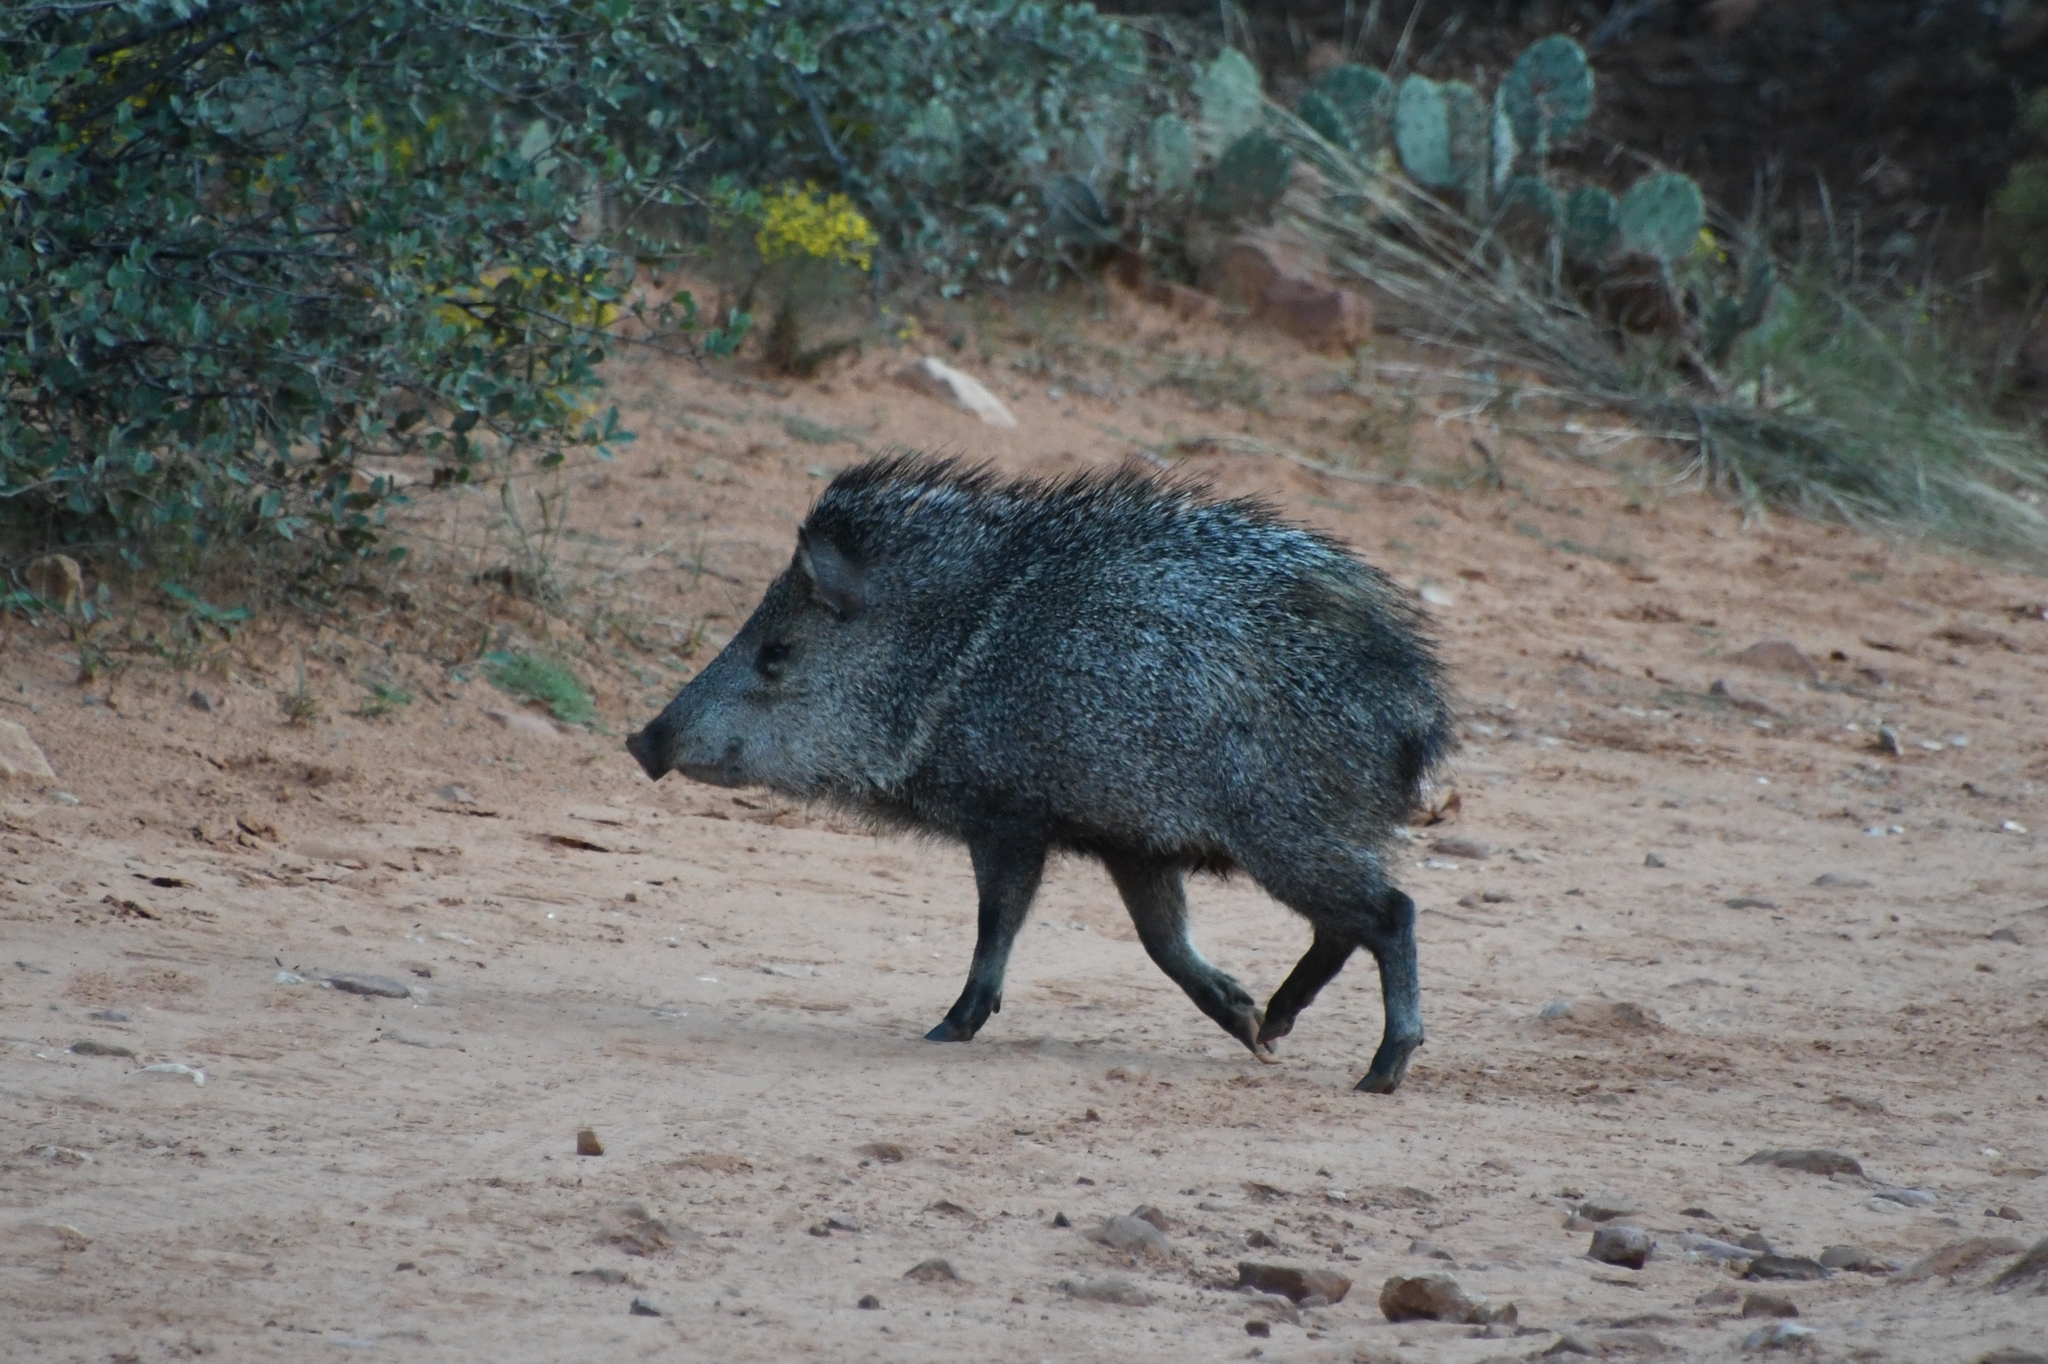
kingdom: Animalia
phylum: Chordata
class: Mammalia
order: Artiodactyla
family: Tayassuidae
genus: Pecari
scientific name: Pecari tajacu
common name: Collared peccary
